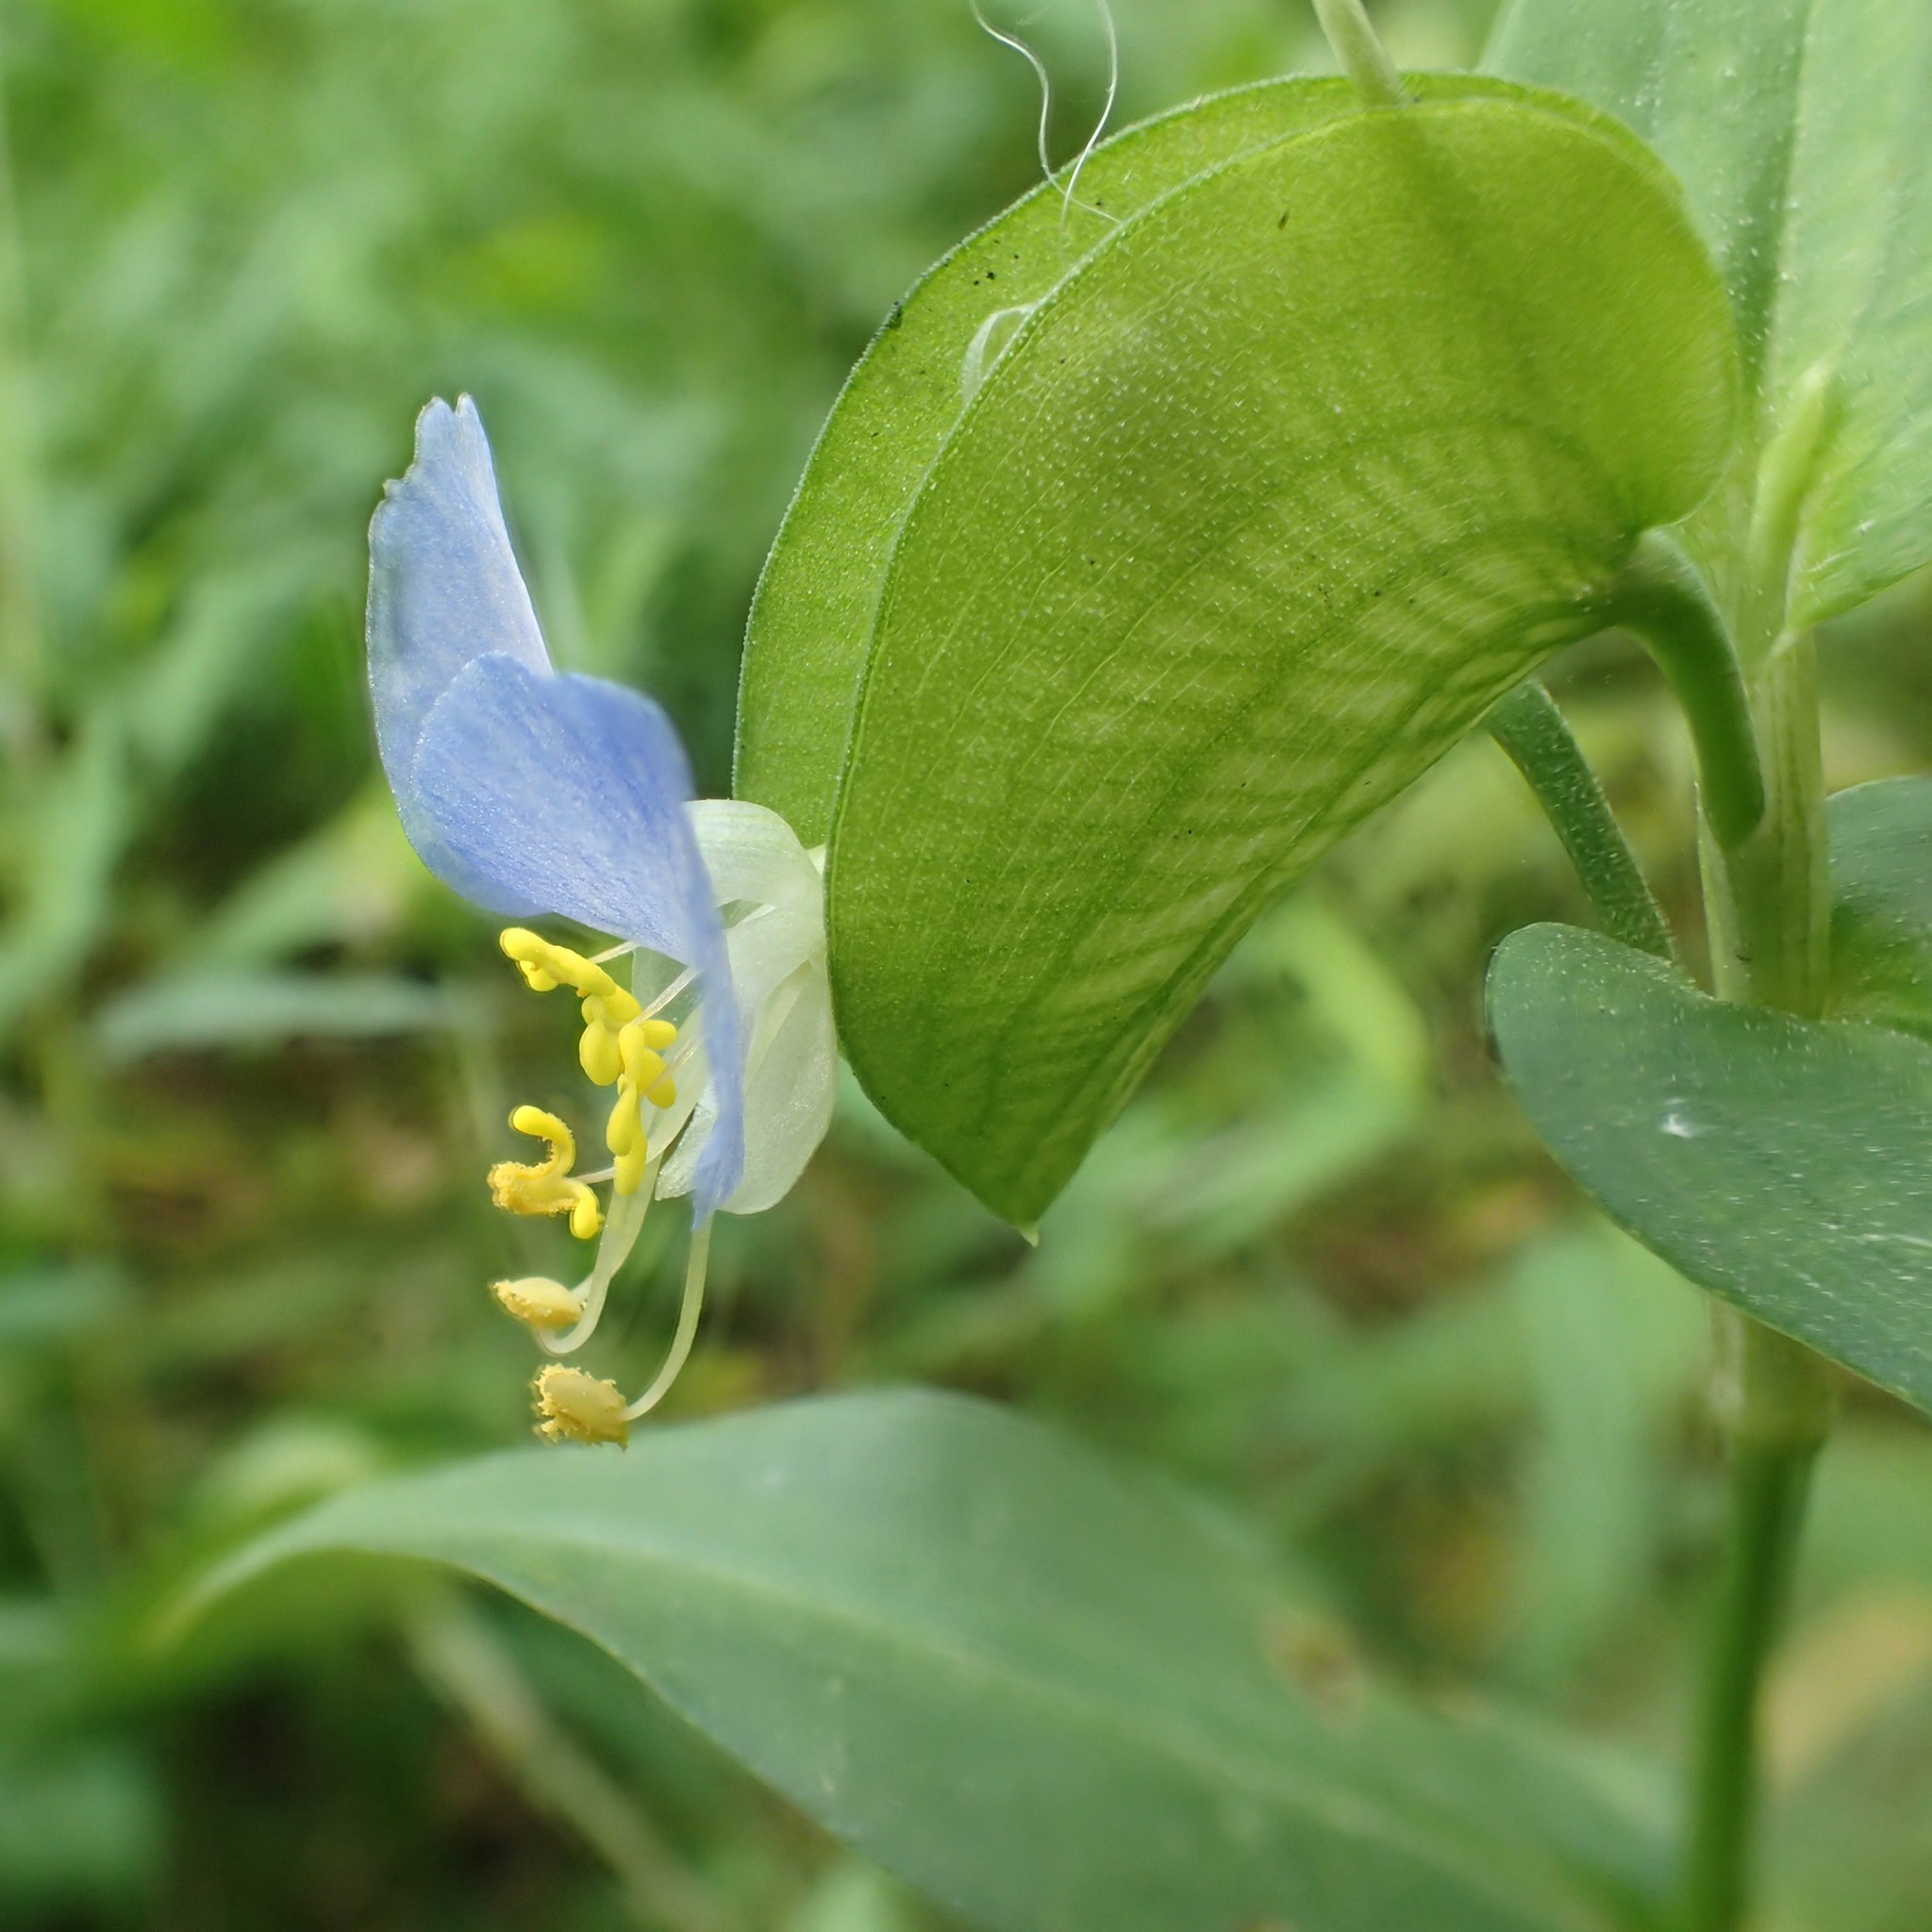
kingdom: Plantae
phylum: Tracheophyta
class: Liliopsida
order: Commelinales
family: Commelinaceae
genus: Commelina
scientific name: Commelina communis
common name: Asiatic dayflower
